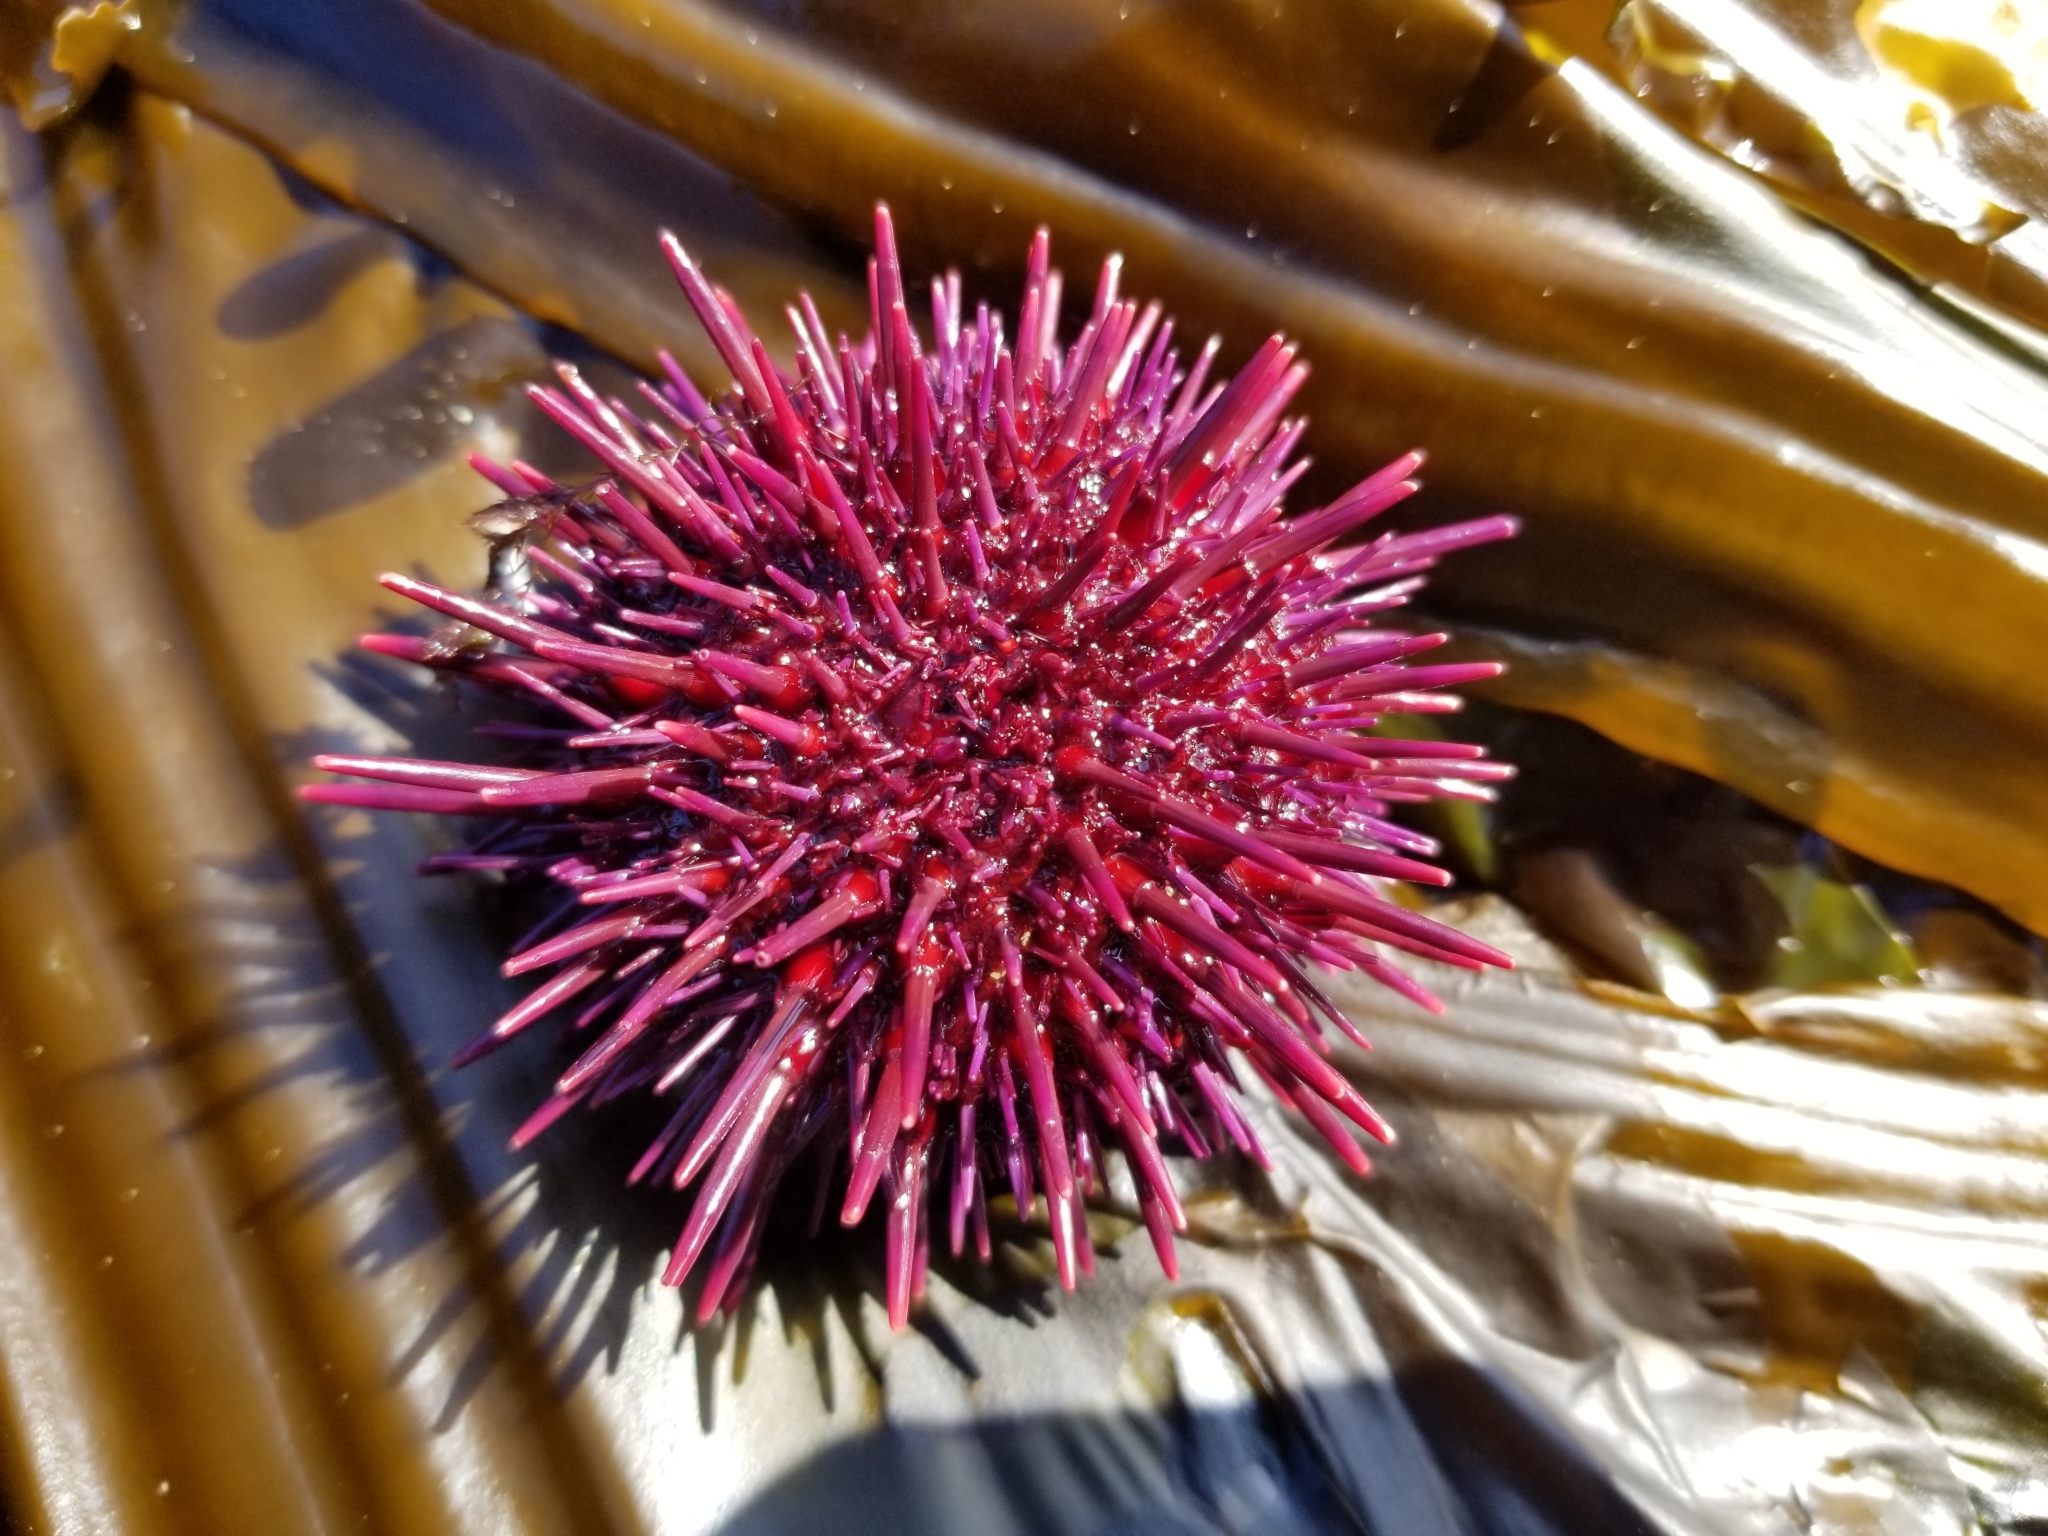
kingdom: Animalia
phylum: Echinodermata
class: Echinoidea
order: Camarodonta
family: Strongylocentrotidae
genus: Mesocentrotus
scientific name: Mesocentrotus franciscanus
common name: Red sea urchin
